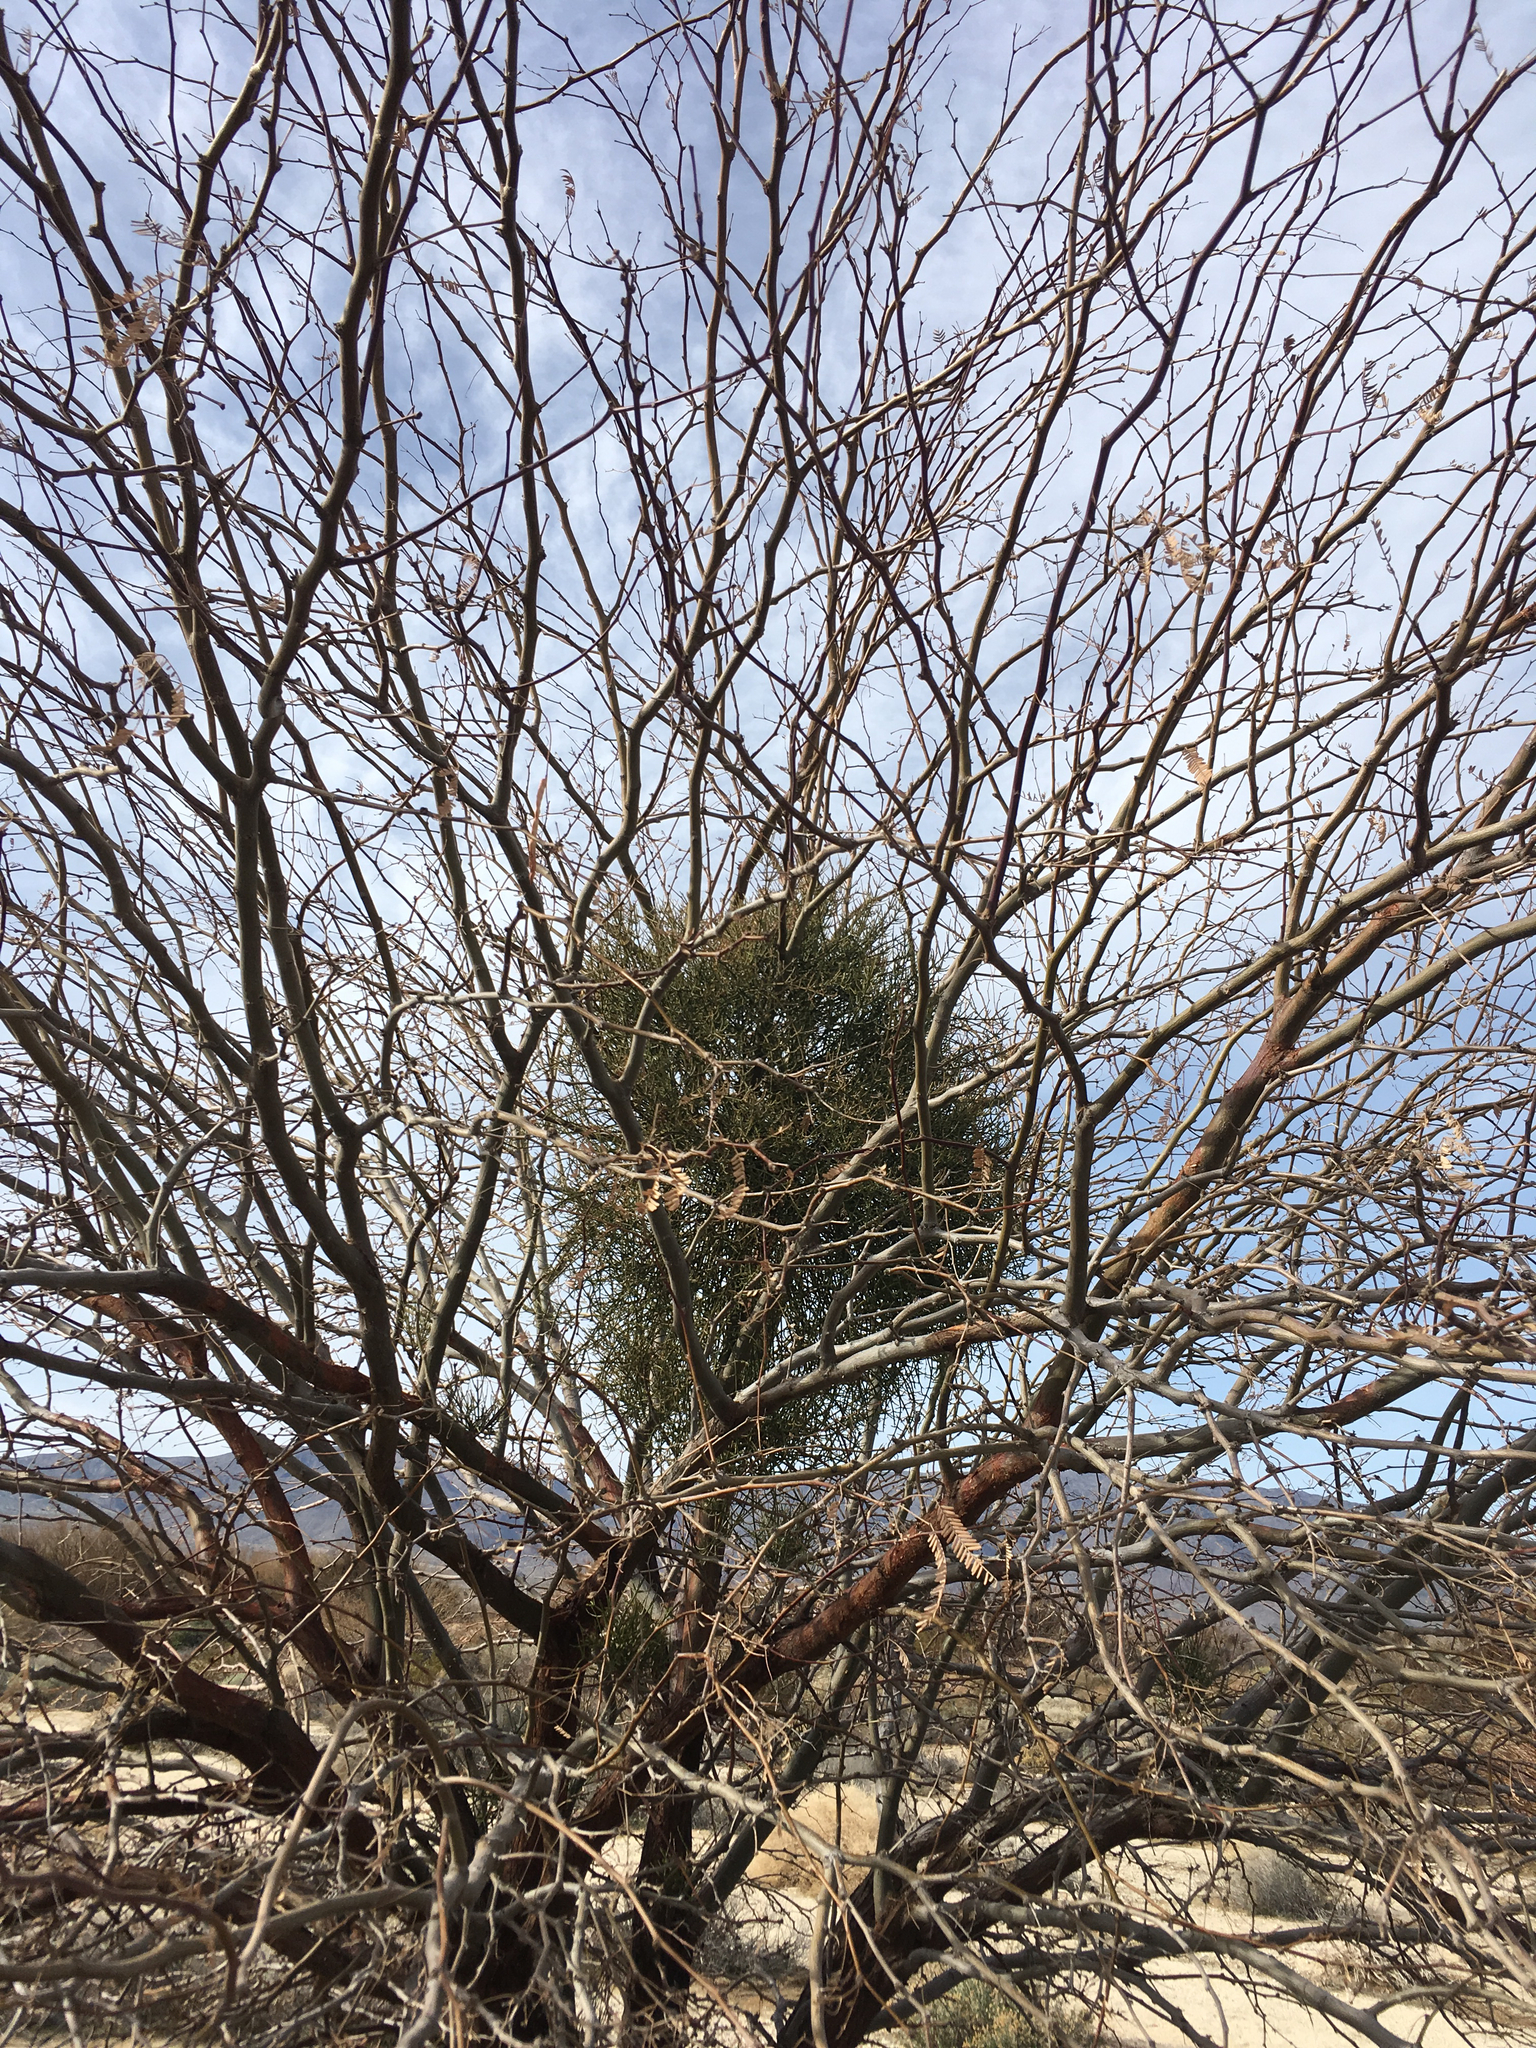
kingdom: Plantae
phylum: Tracheophyta
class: Magnoliopsida
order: Santalales
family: Viscaceae
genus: Phoradendron
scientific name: Phoradendron californicum
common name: Acacia mistletoe
